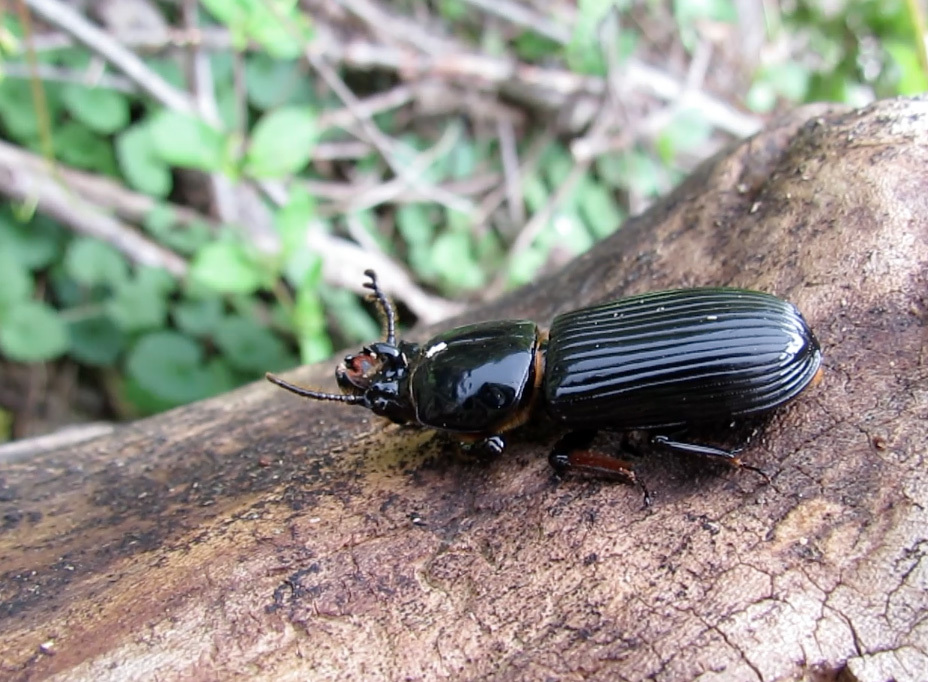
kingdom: Animalia
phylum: Arthropoda
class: Insecta
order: Coleoptera
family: Passalidae
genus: Odontotaenius
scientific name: Odontotaenius disjunctus
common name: Patent leather beetle
